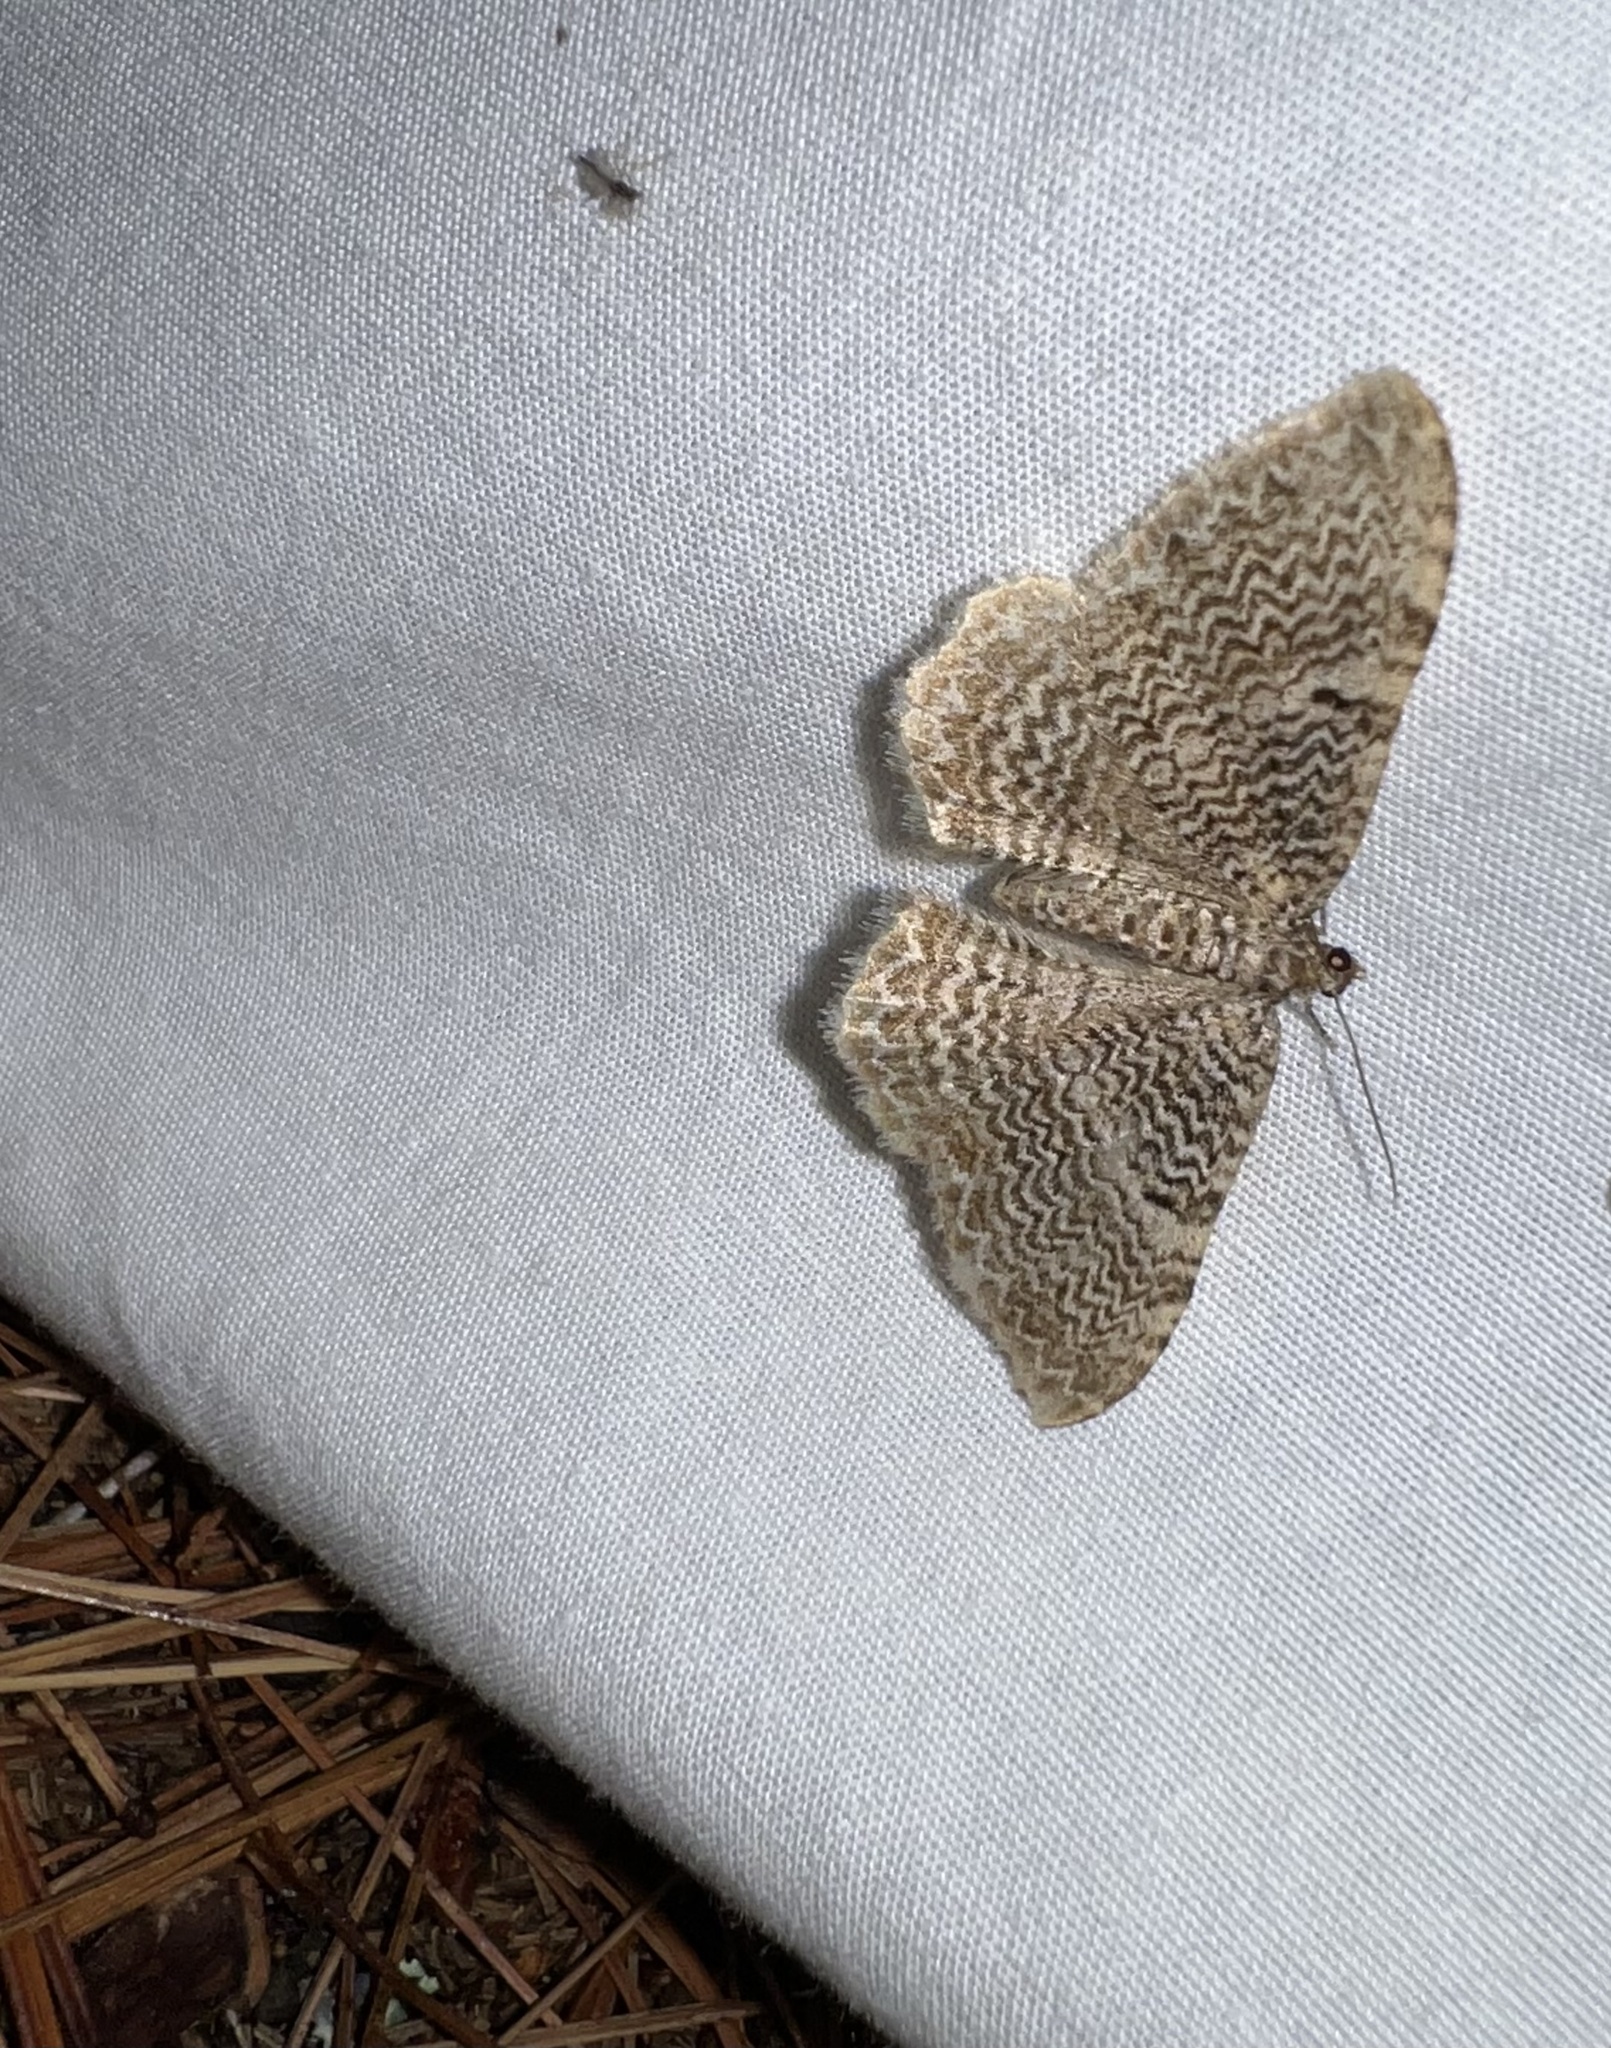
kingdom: Animalia
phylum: Arthropoda
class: Insecta
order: Lepidoptera
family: Geometridae
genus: Rheumaptera
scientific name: Rheumaptera
